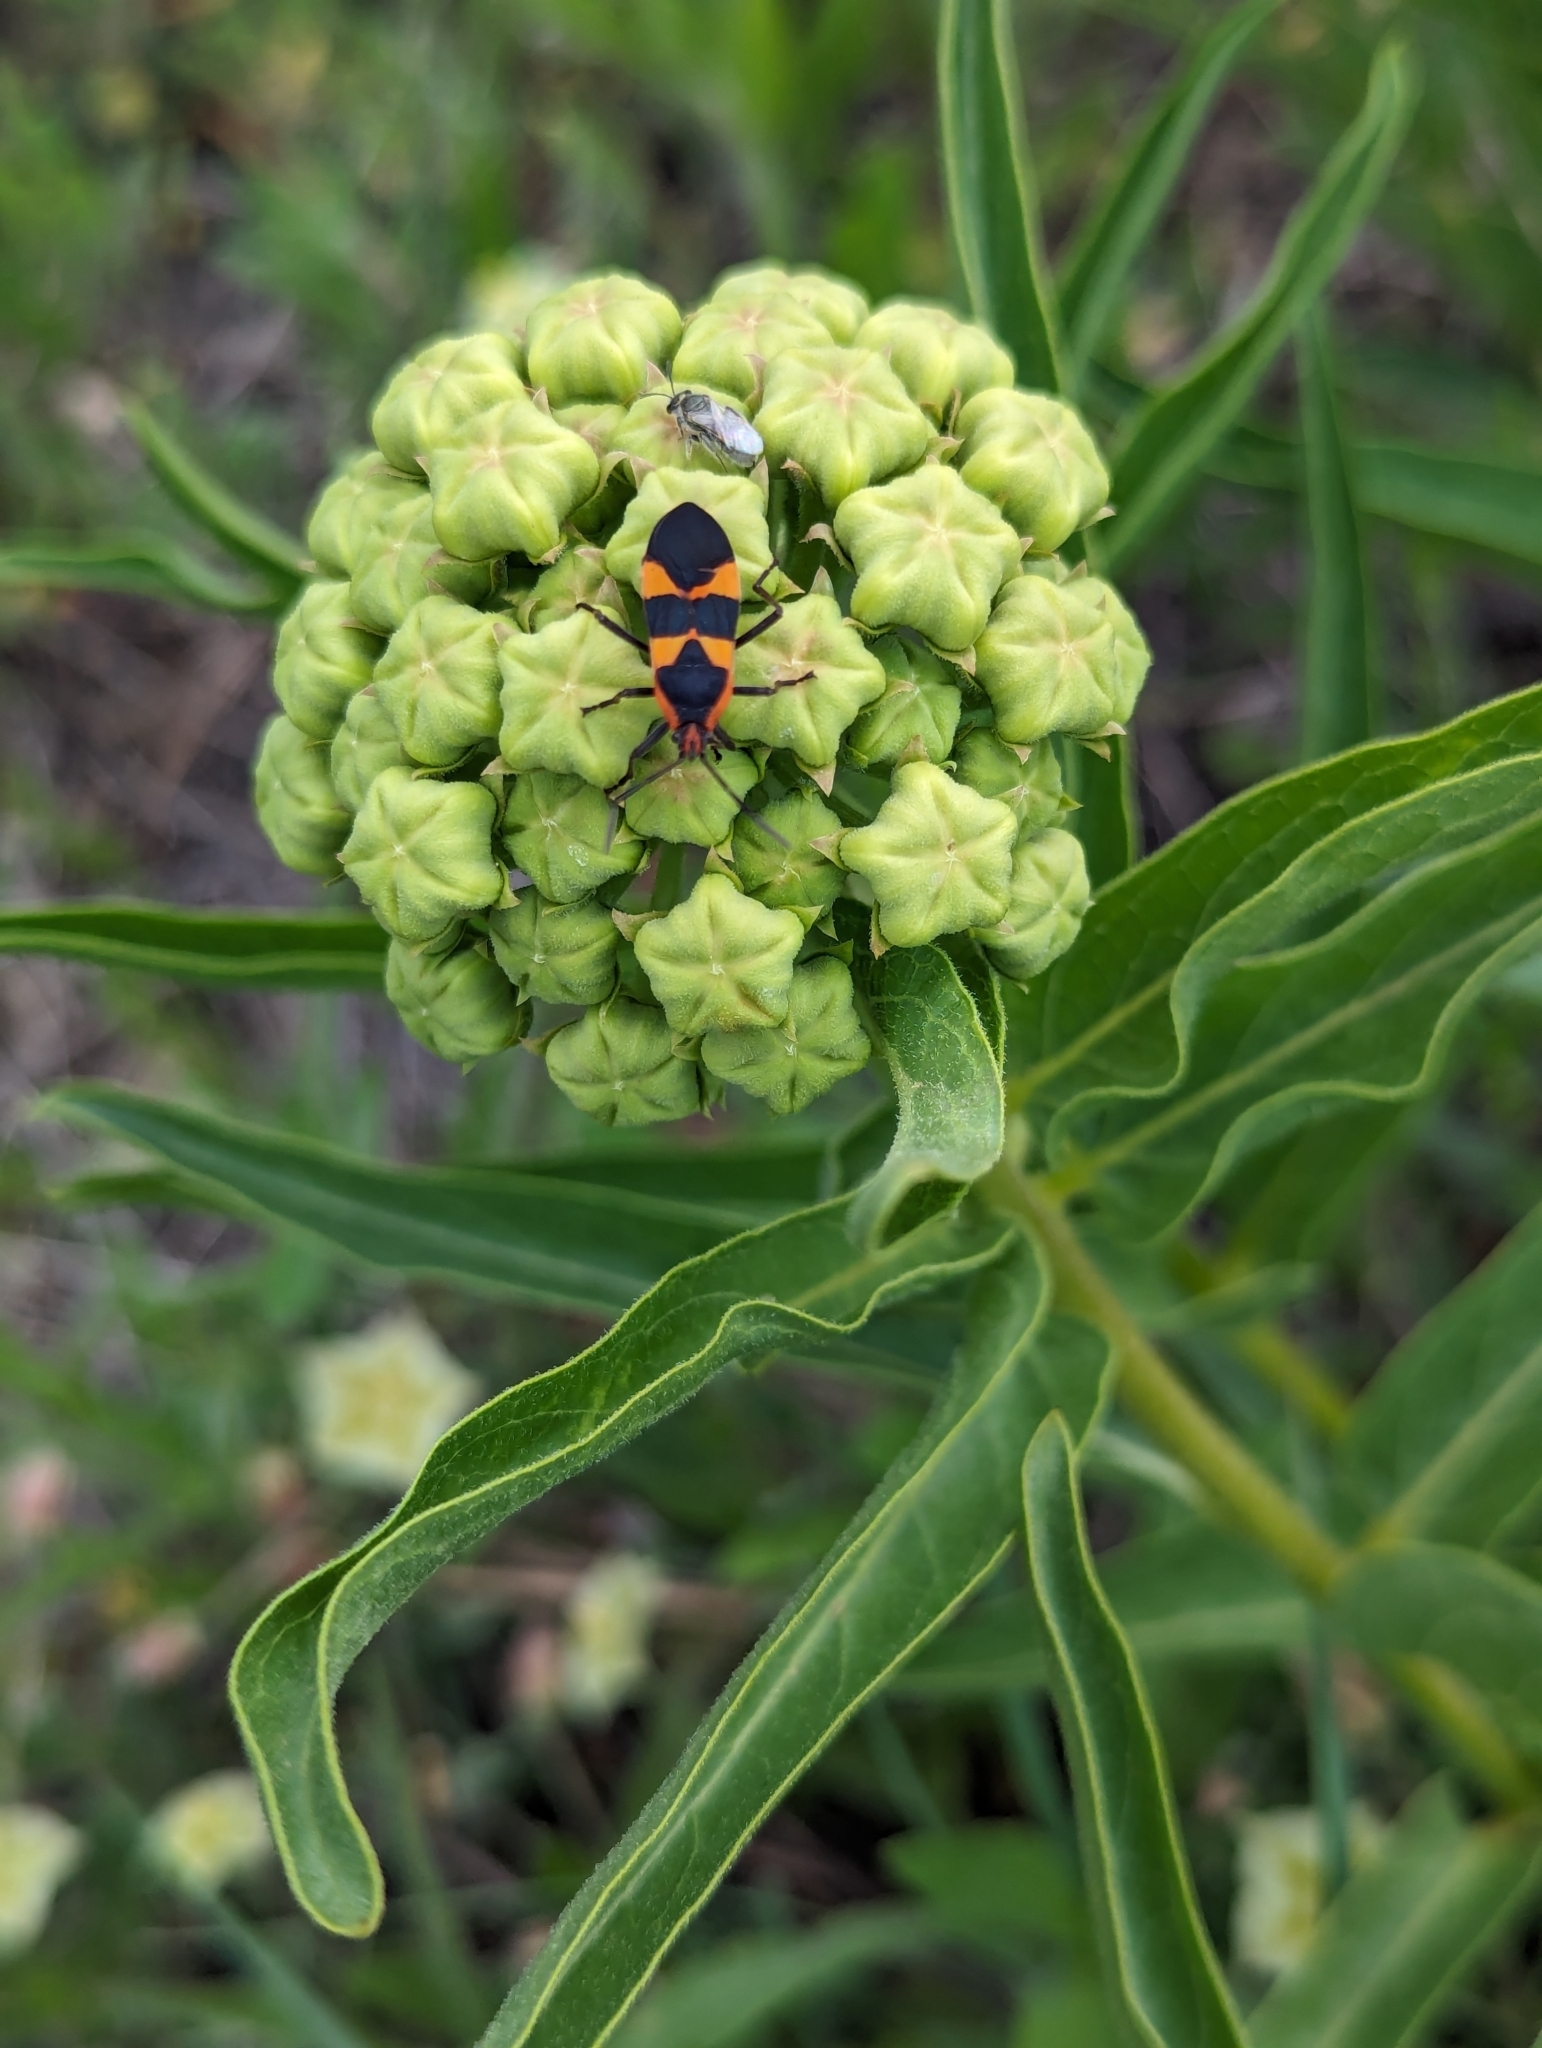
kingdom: Plantae
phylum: Tracheophyta
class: Magnoliopsida
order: Gentianales
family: Apocynaceae
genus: Asclepias
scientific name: Asclepias asperula
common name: Antelope horns
